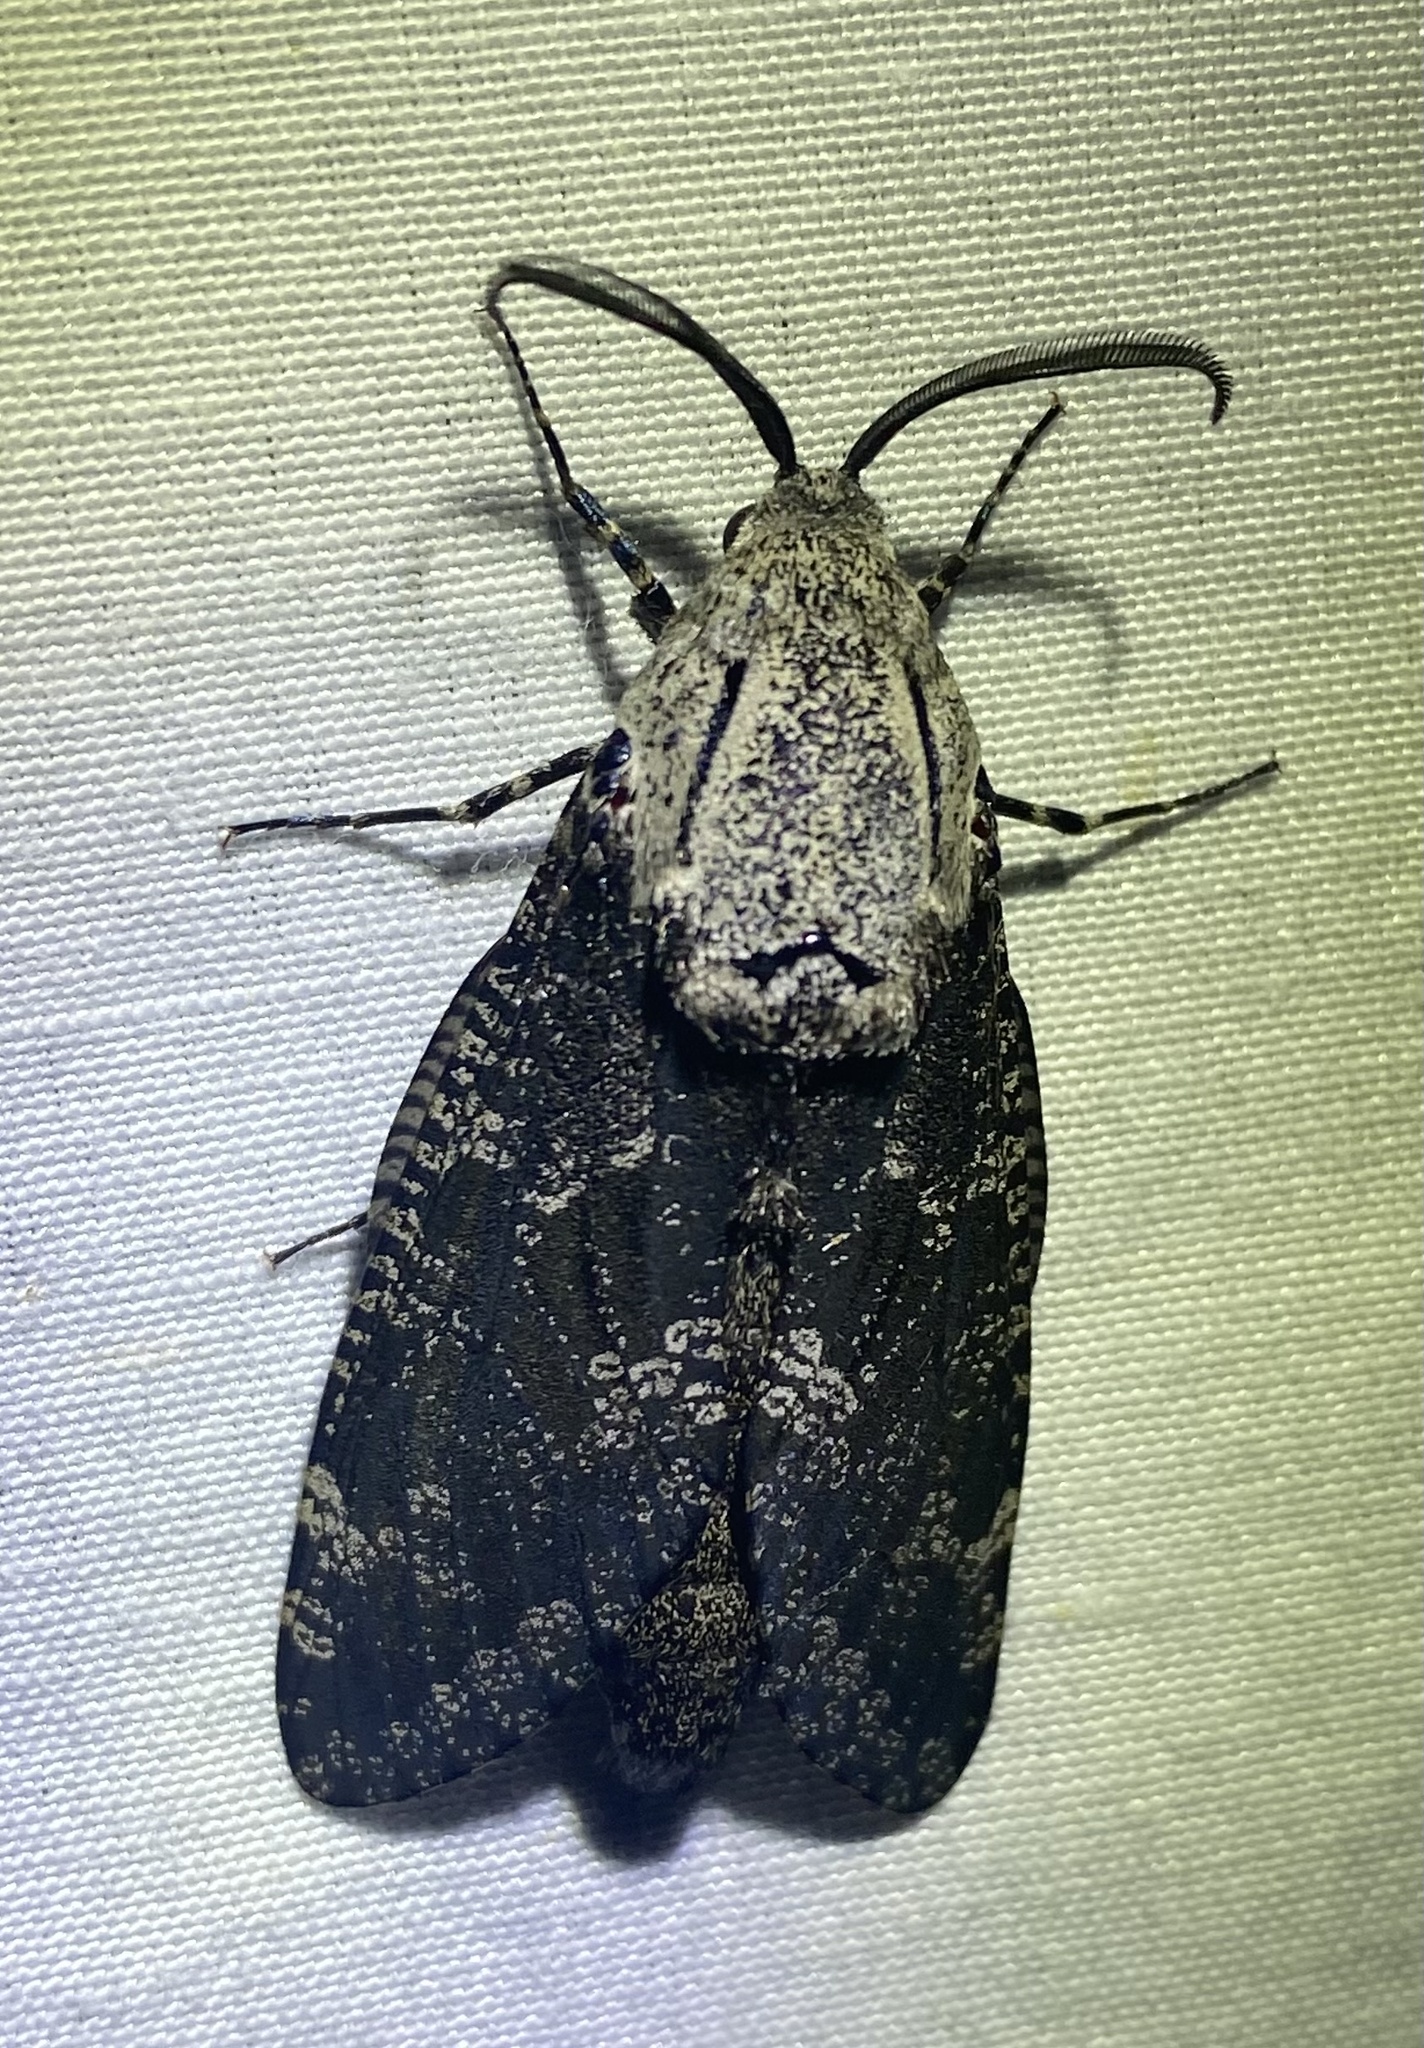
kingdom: Animalia
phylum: Arthropoda
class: Insecta
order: Lepidoptera
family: Cossidae
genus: Prionoxystus
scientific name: Prionoxystus robiniae
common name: Carpenterworm
